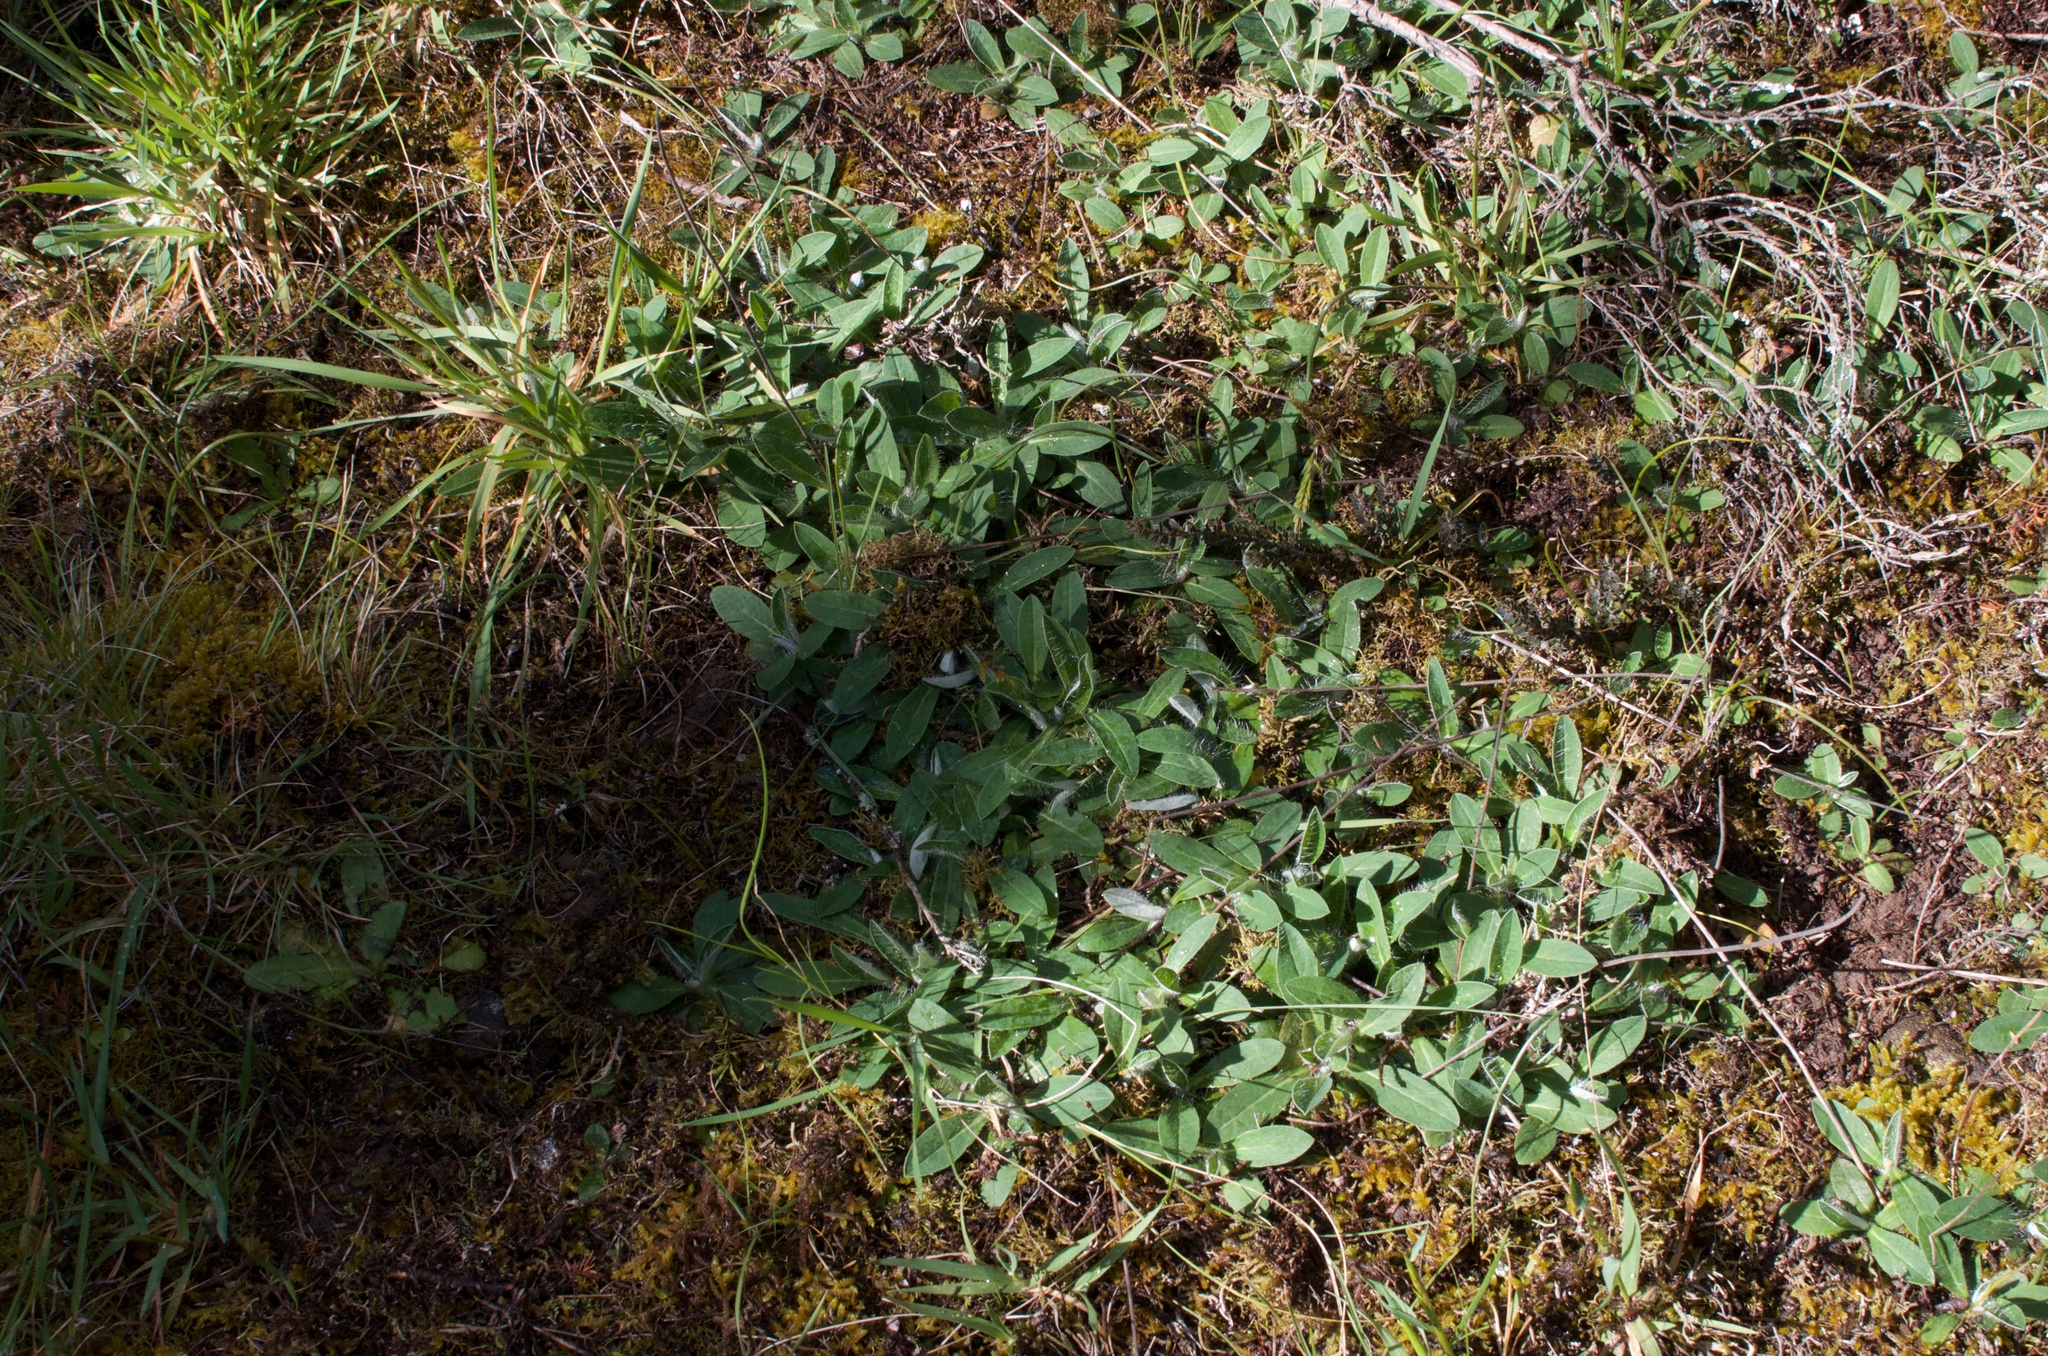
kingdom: Plantae
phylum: Tracheophyta
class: Magnoliopsida
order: Asterales
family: Asteraceae
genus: Pilosella
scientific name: Pilosella officinarum
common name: Mouse-ear hawkweed
